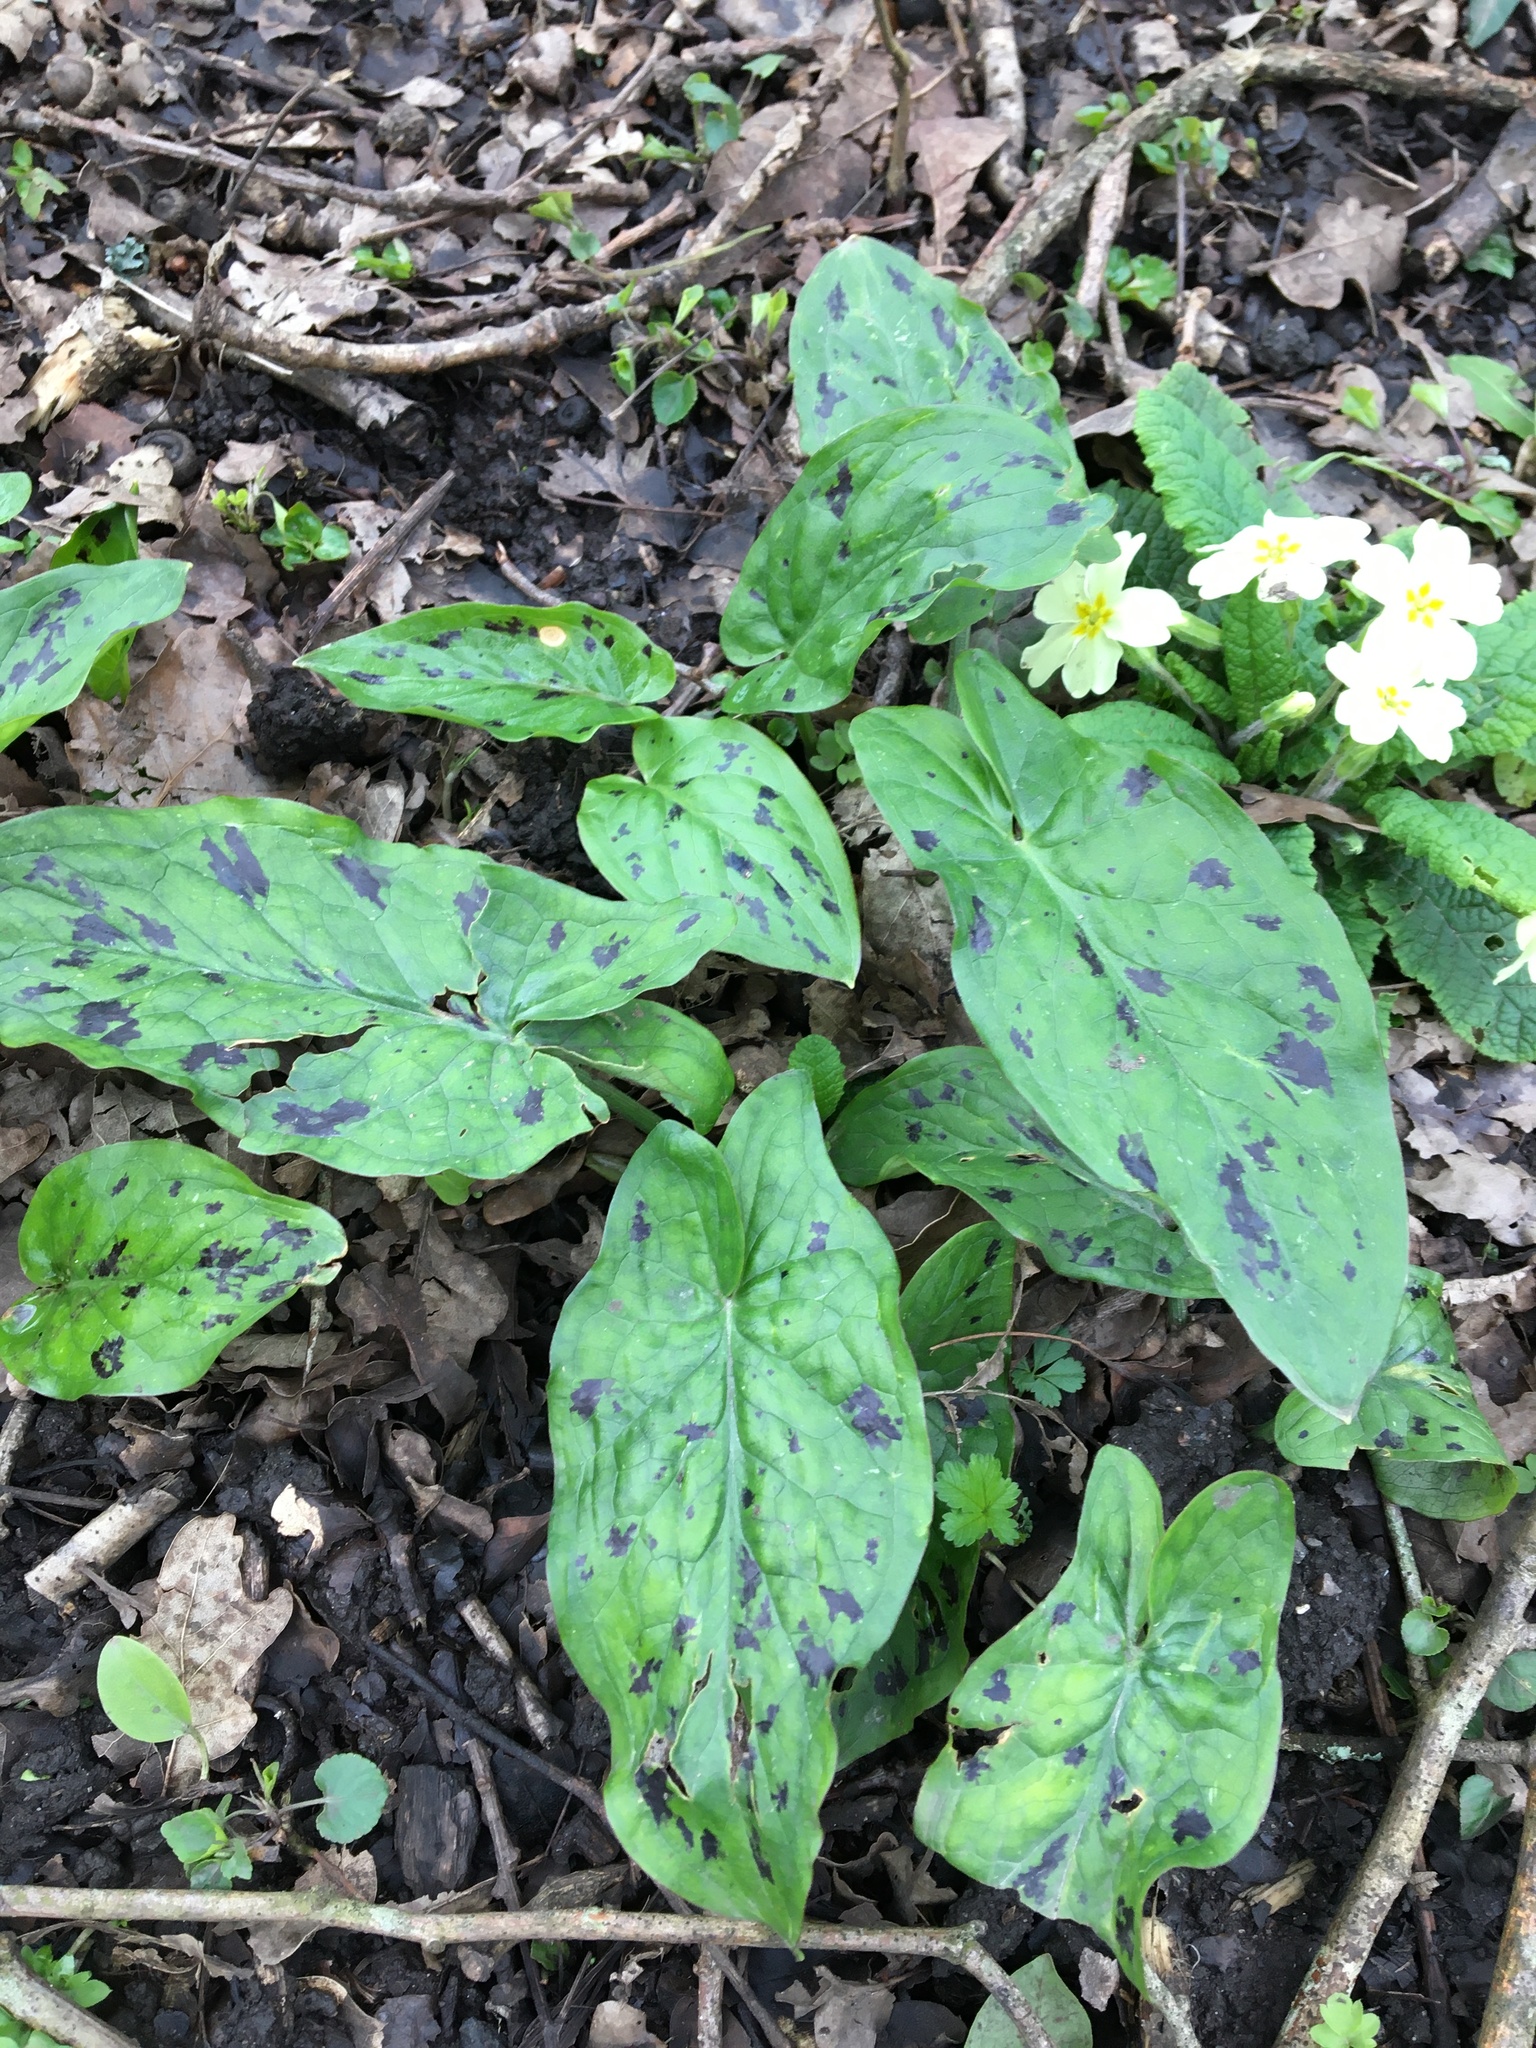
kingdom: Plantae
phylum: Tracheophyta
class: Liliopsida
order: Alismatales
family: Araceae
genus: Arum
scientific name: Arum maculatum
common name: Lords-and-ladies
